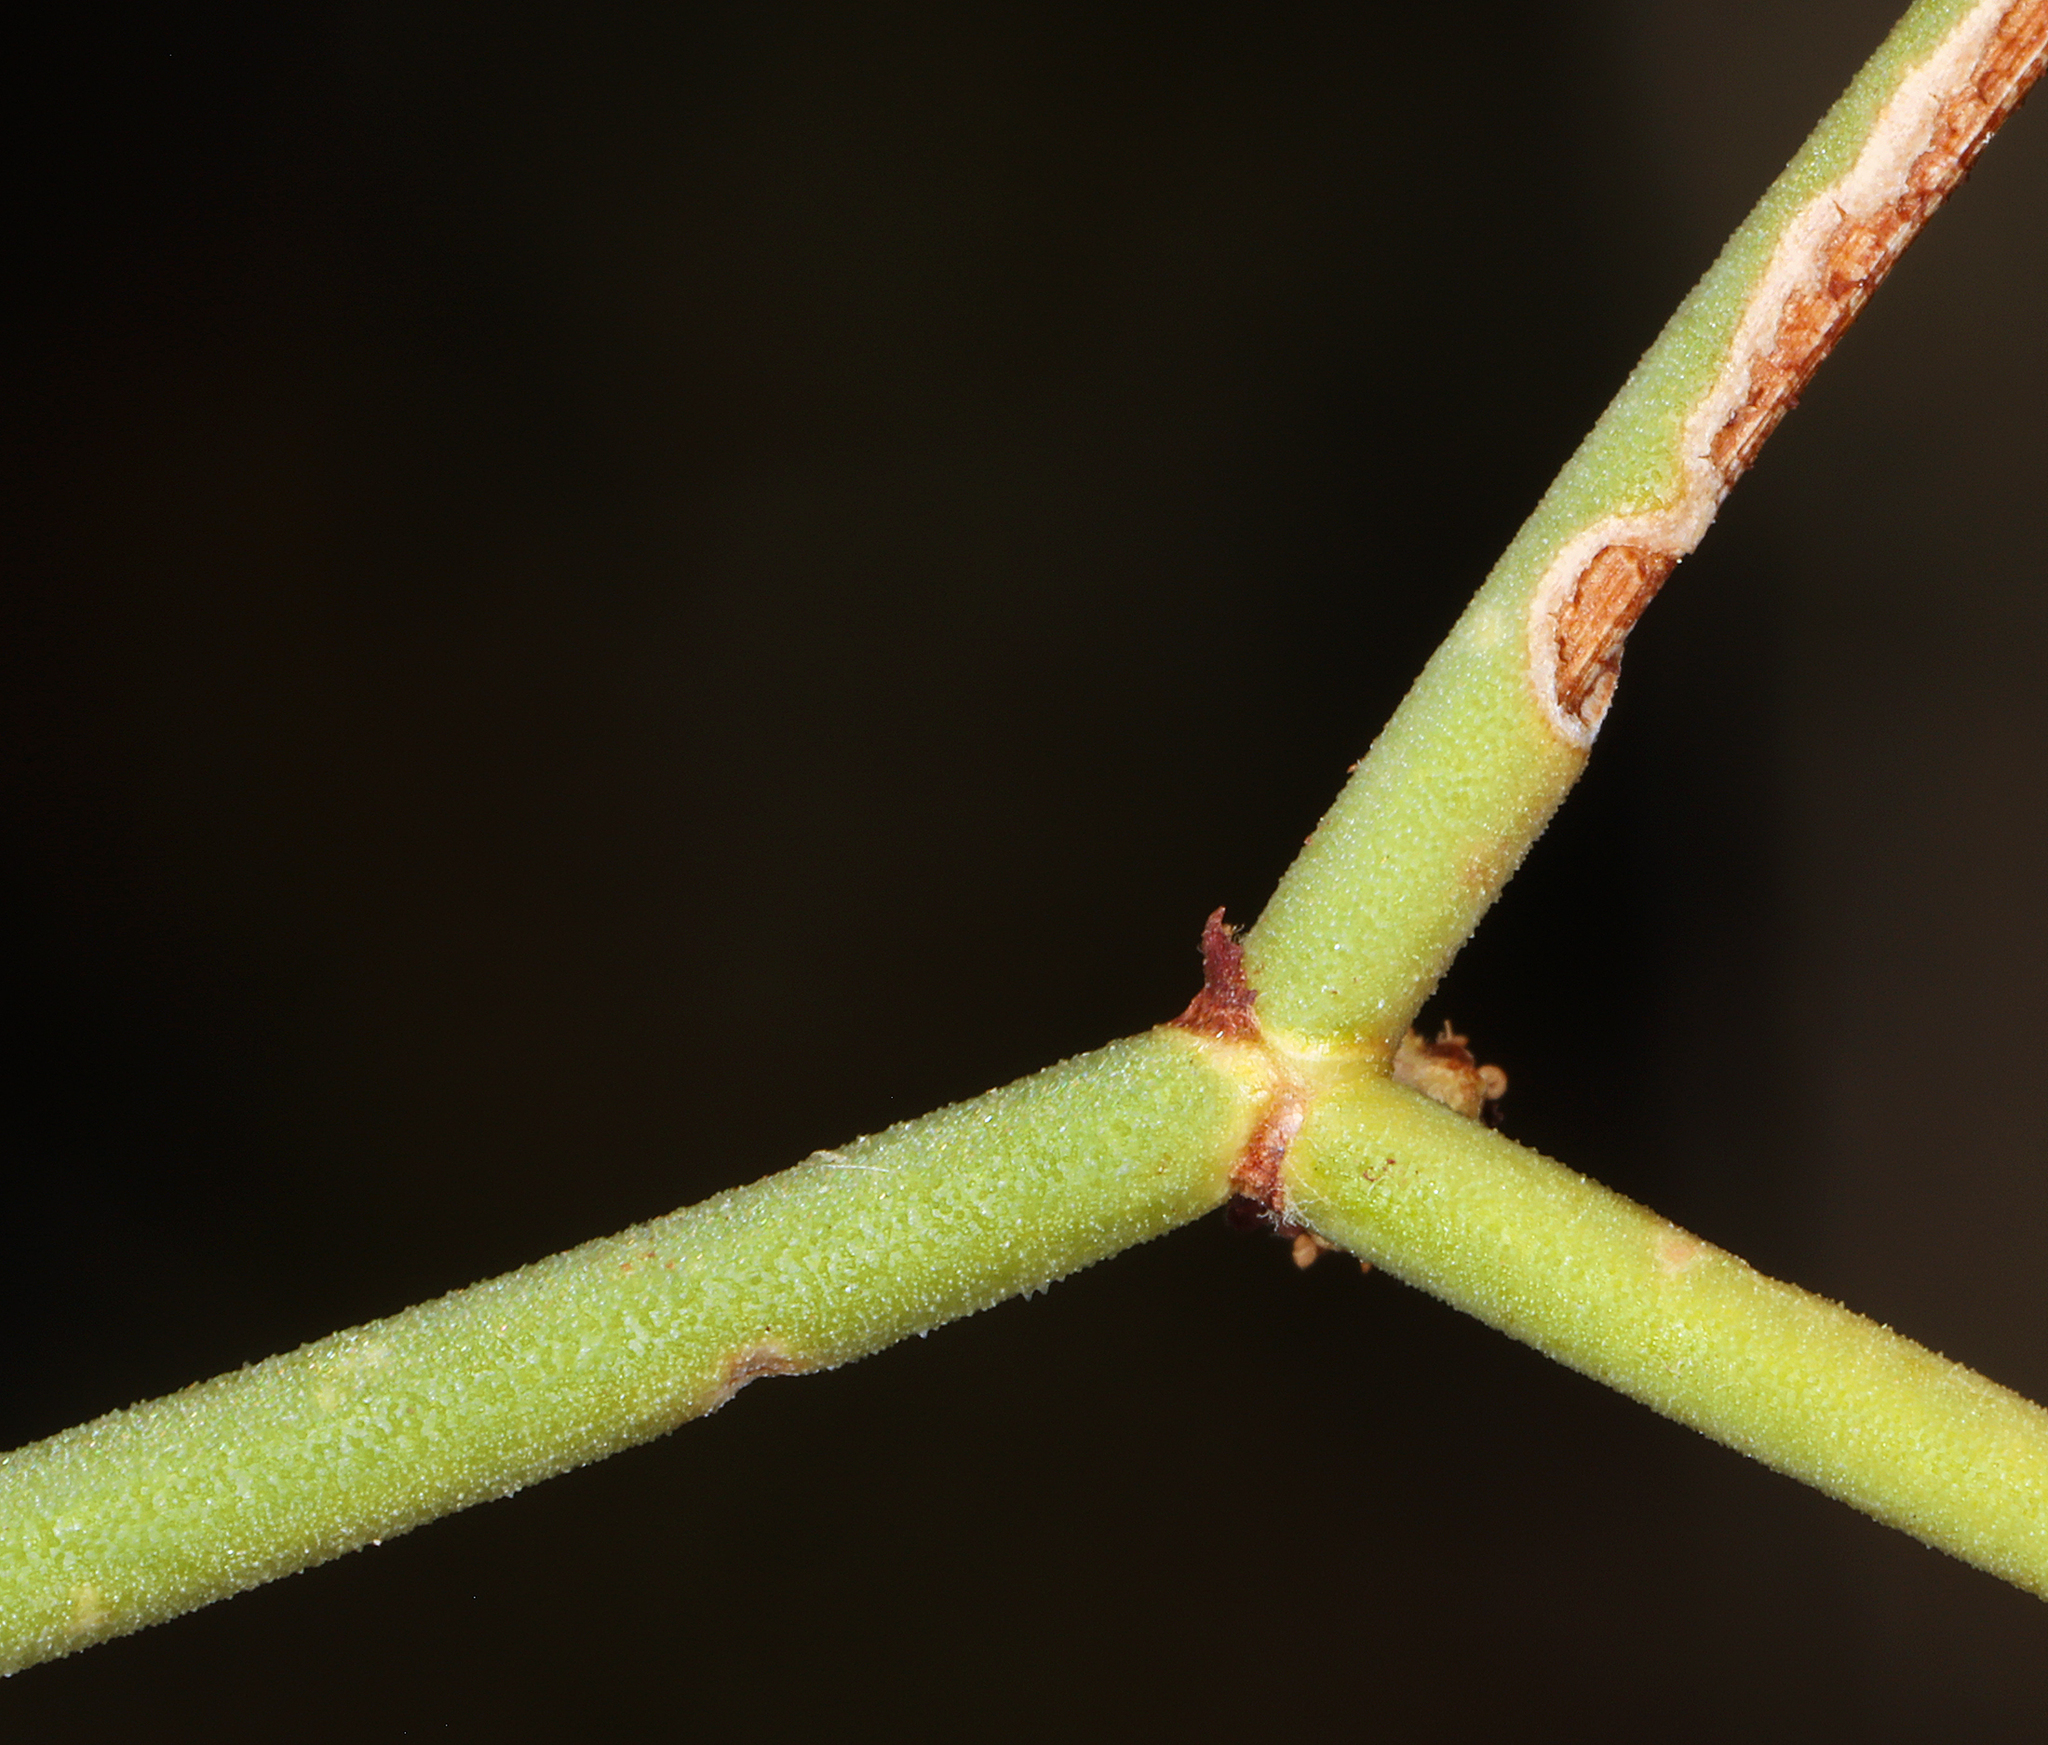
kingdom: Plantae
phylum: Tracheophyta
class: Magnoliopsida
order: Caryophyllales
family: Polygonaceae
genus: Eriogonum
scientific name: Eriogonum heermannii
